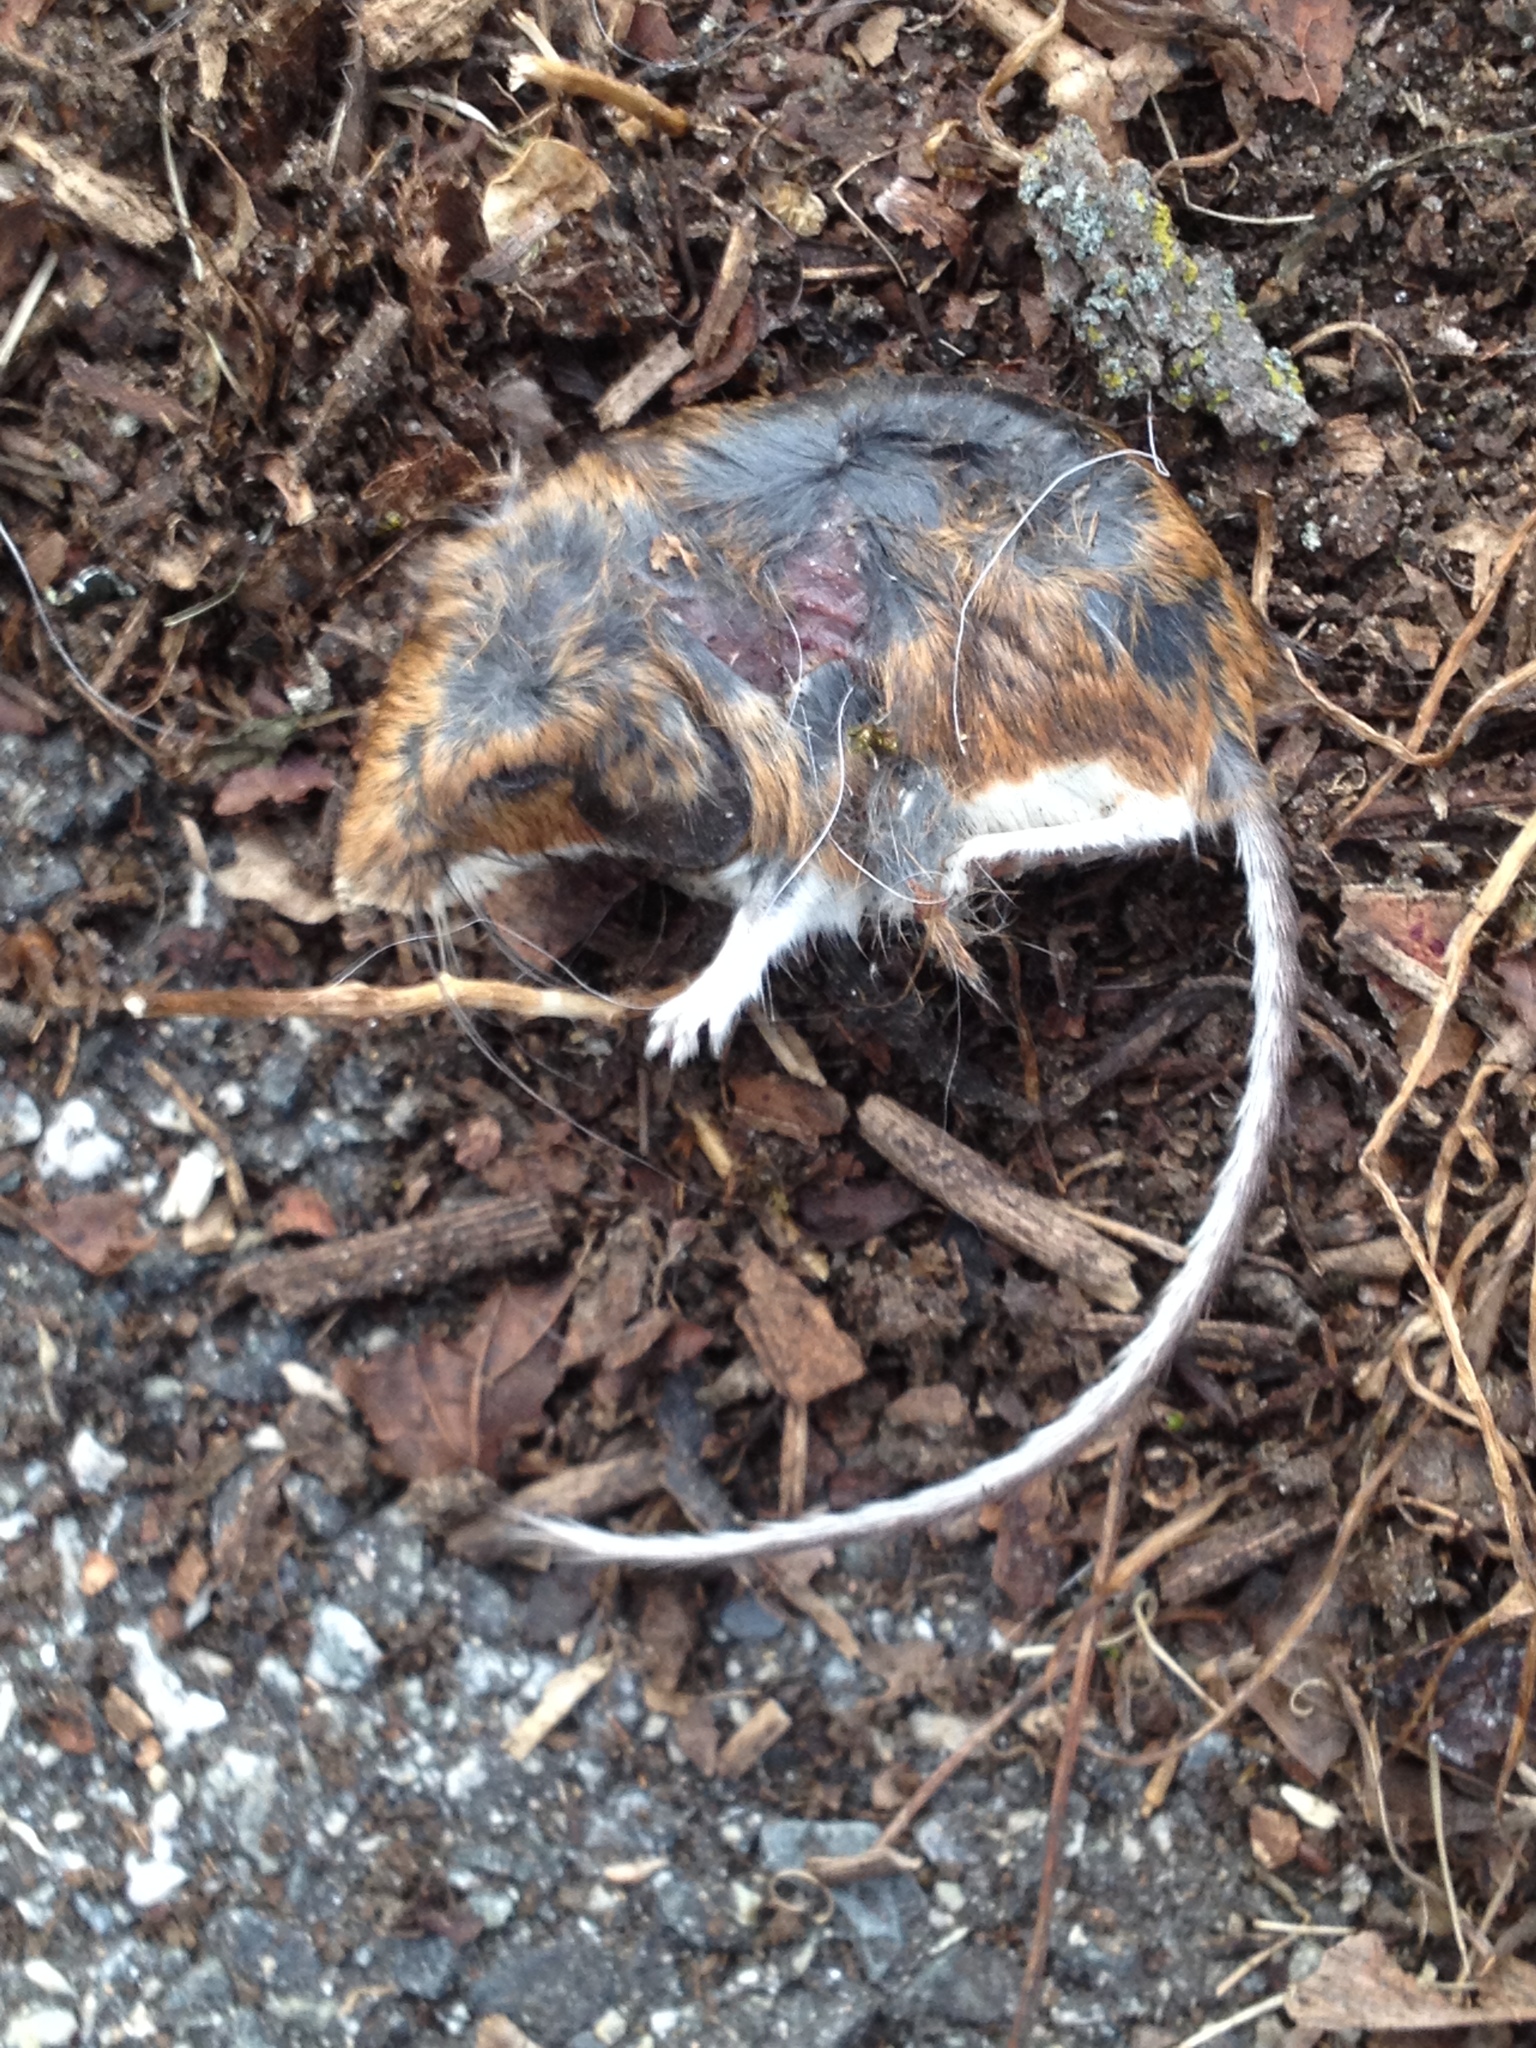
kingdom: Animalia
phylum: Chordata
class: Mammalia
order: Rodentia
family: Cricetidae
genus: Peromyscus
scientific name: Peromyscus leucopus
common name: White-footed deermouse
